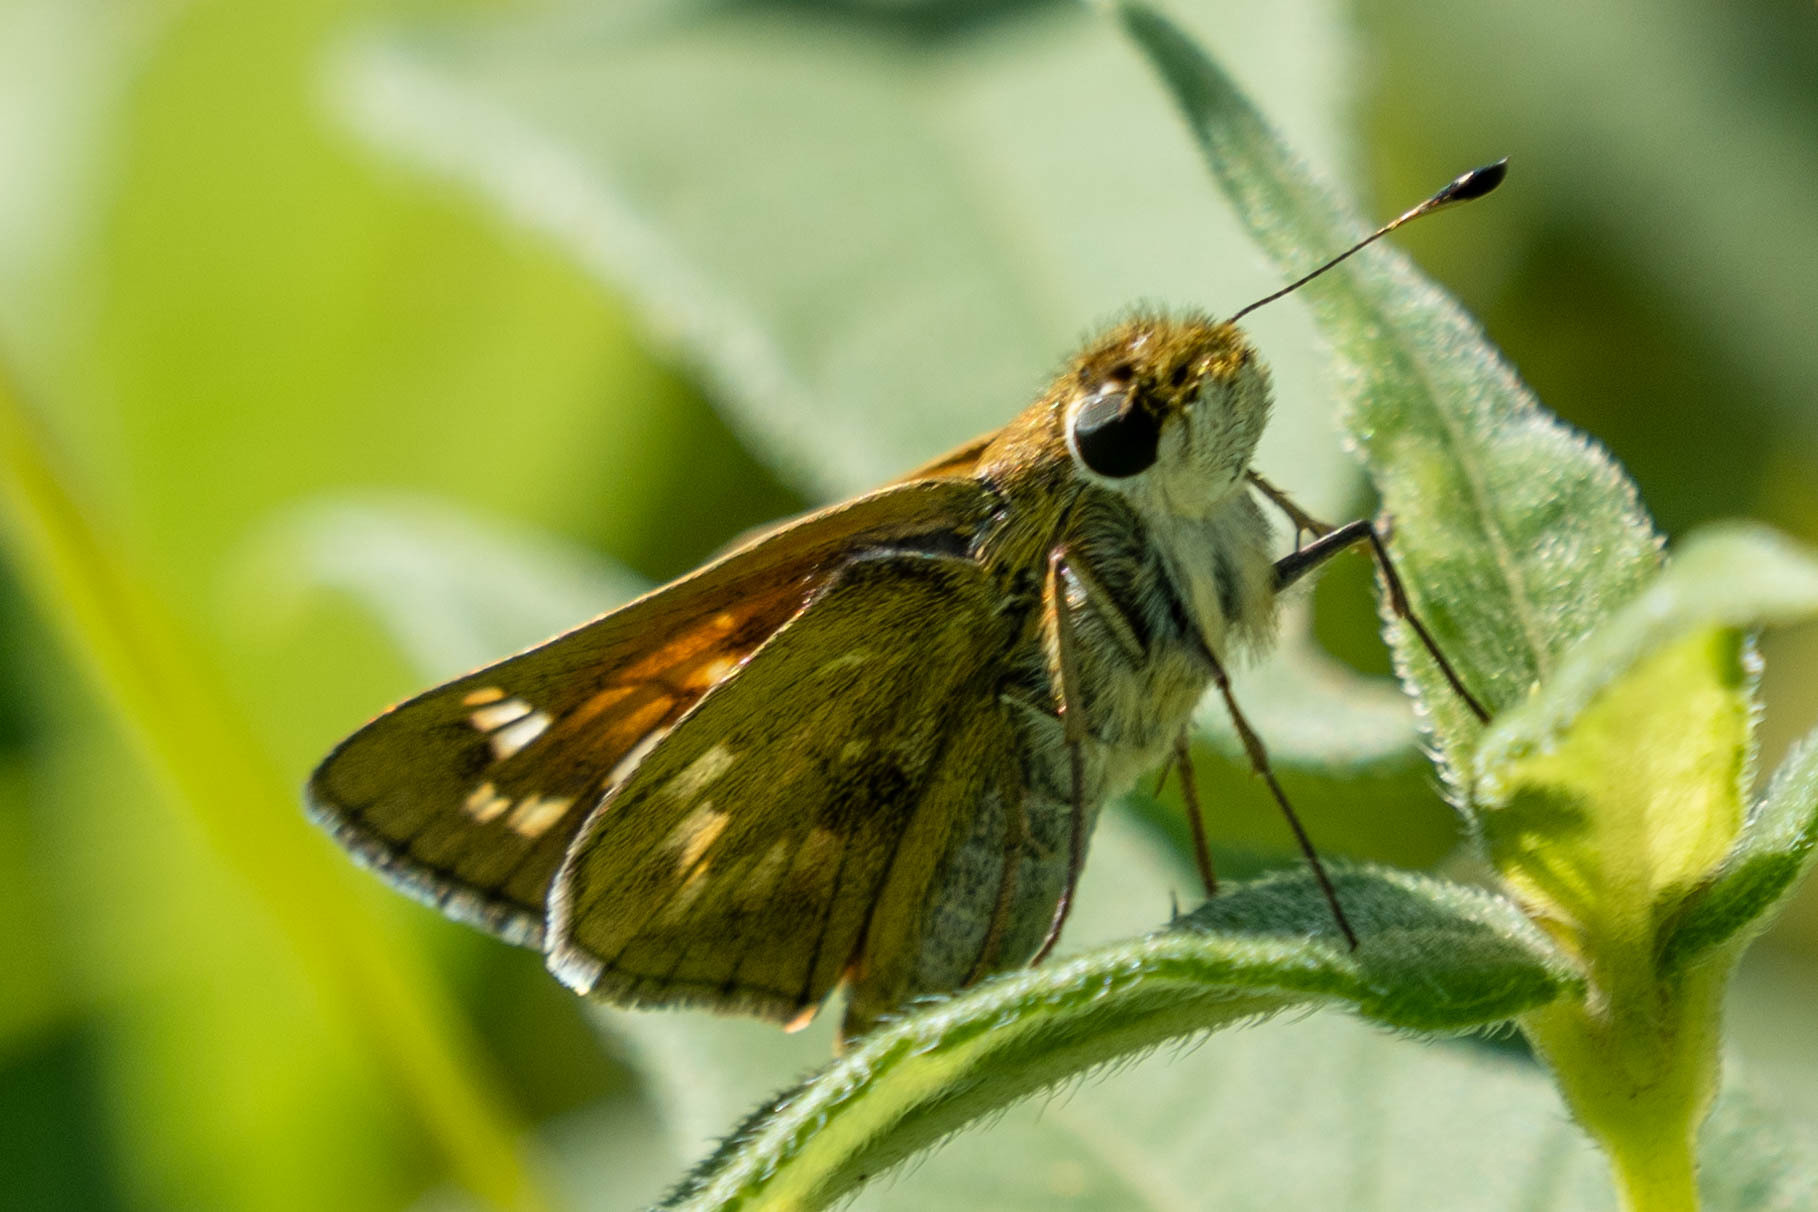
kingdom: Animalia
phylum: Arthropoda
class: Insecta
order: Lepidoptera
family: Hesperiidae
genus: Atalopedes
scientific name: Atalopedes
